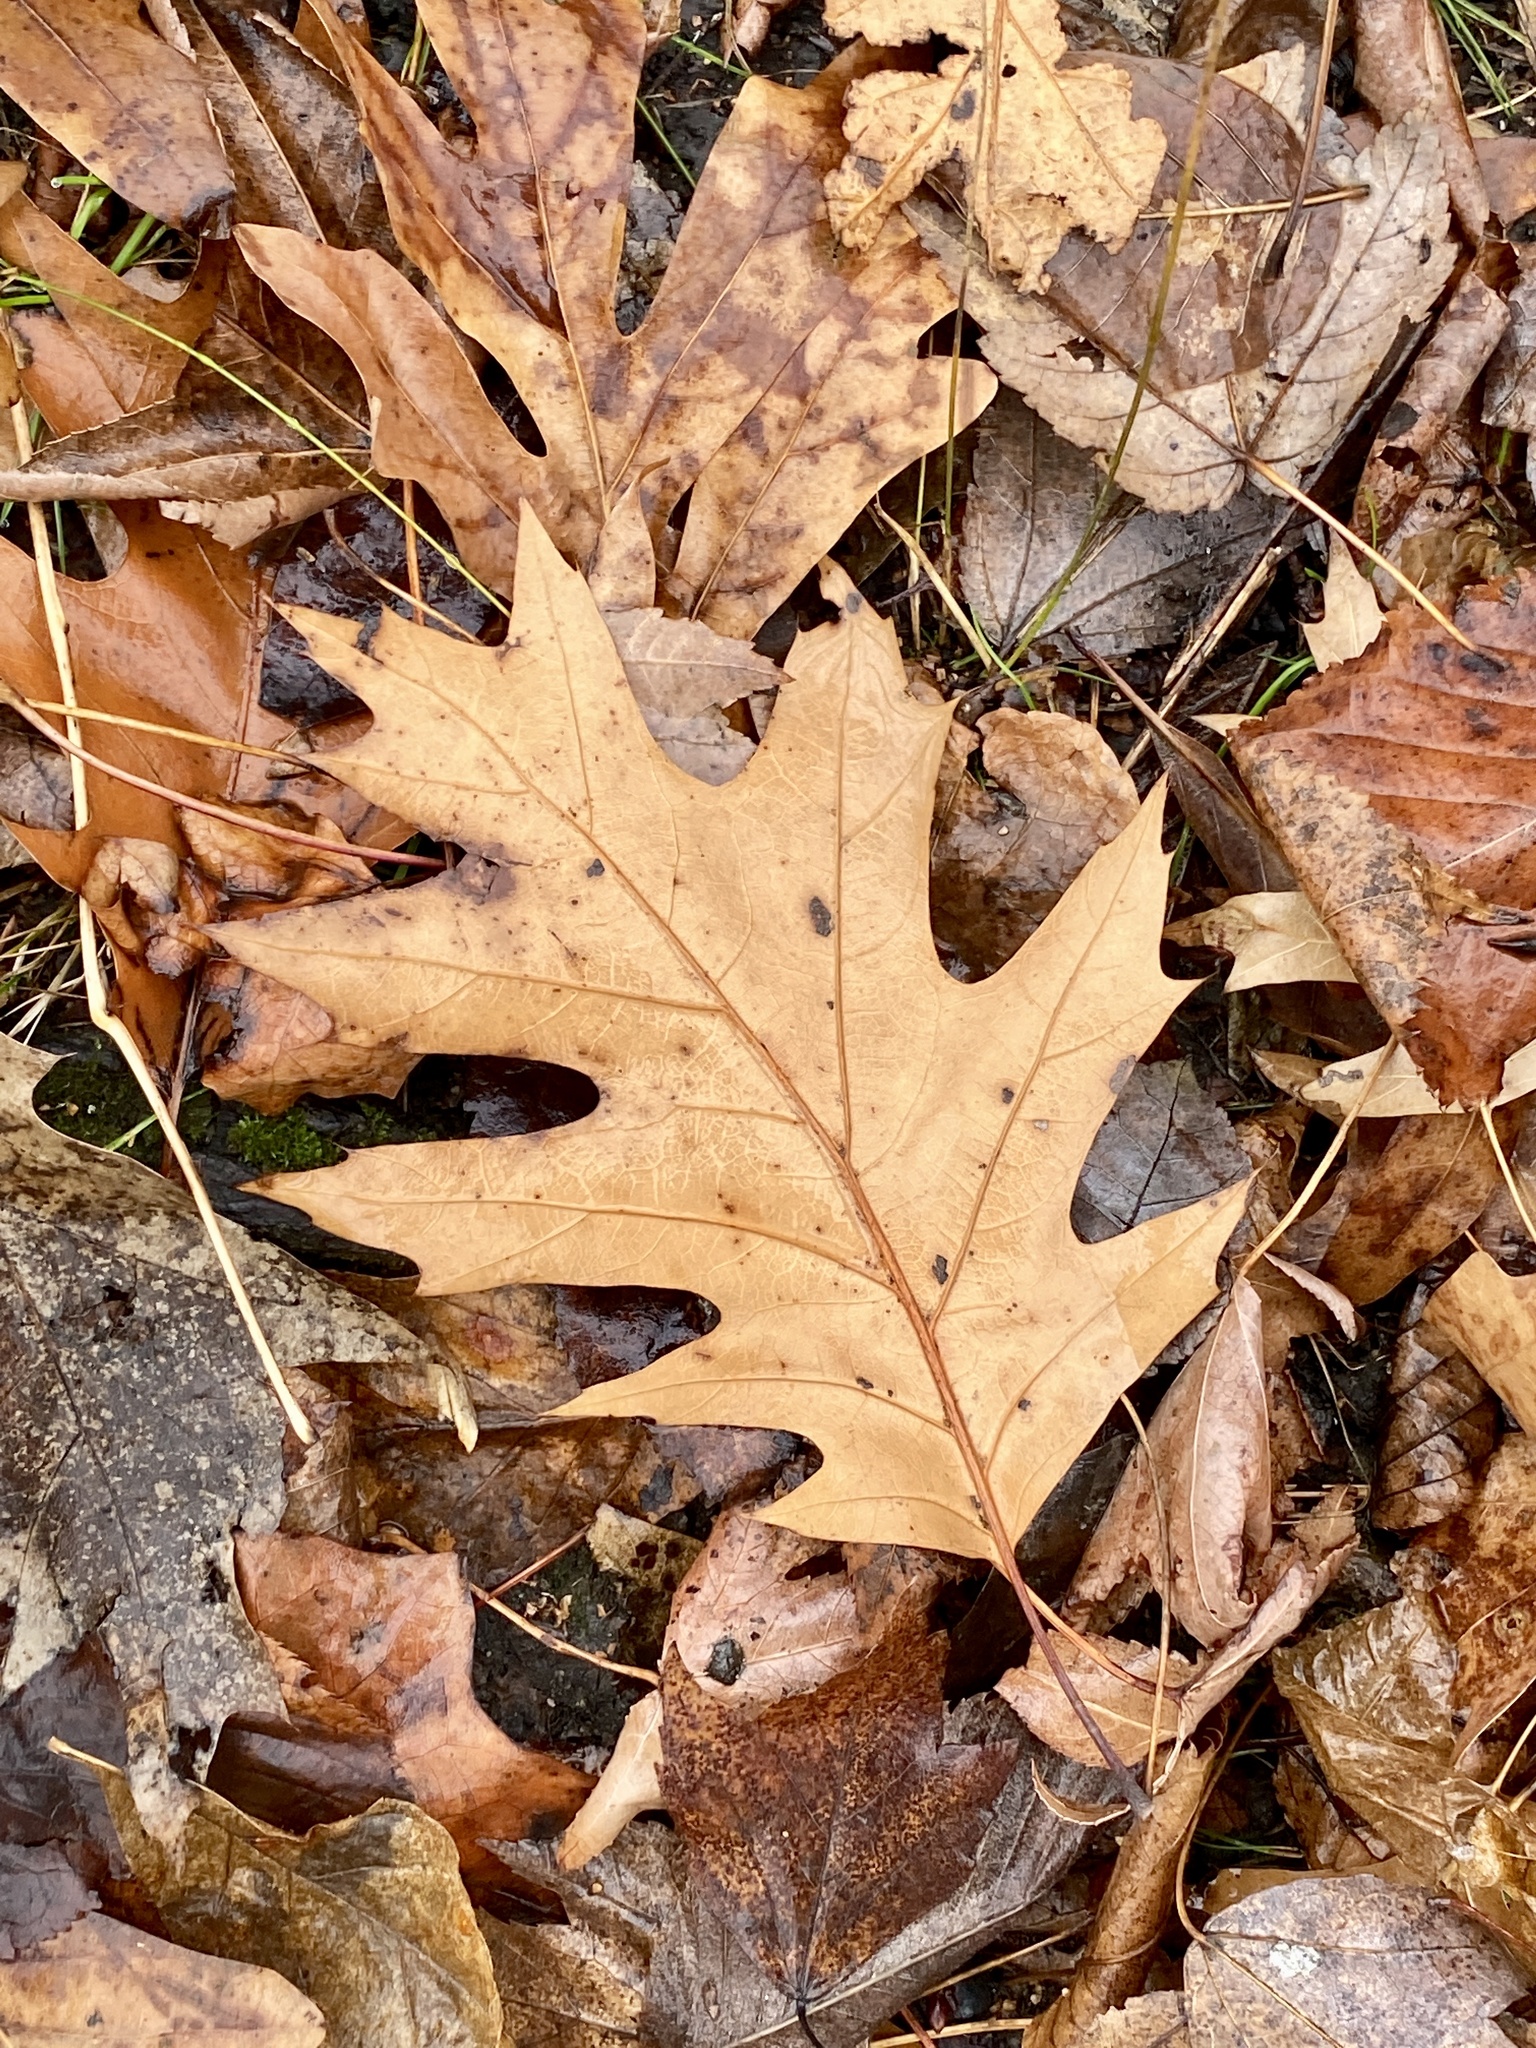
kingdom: Plantae
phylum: Tracheophyta
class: Magnoliopsida
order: Fagales
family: Fagaceae
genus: Quercus
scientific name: Quercus rubra
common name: Red oak
